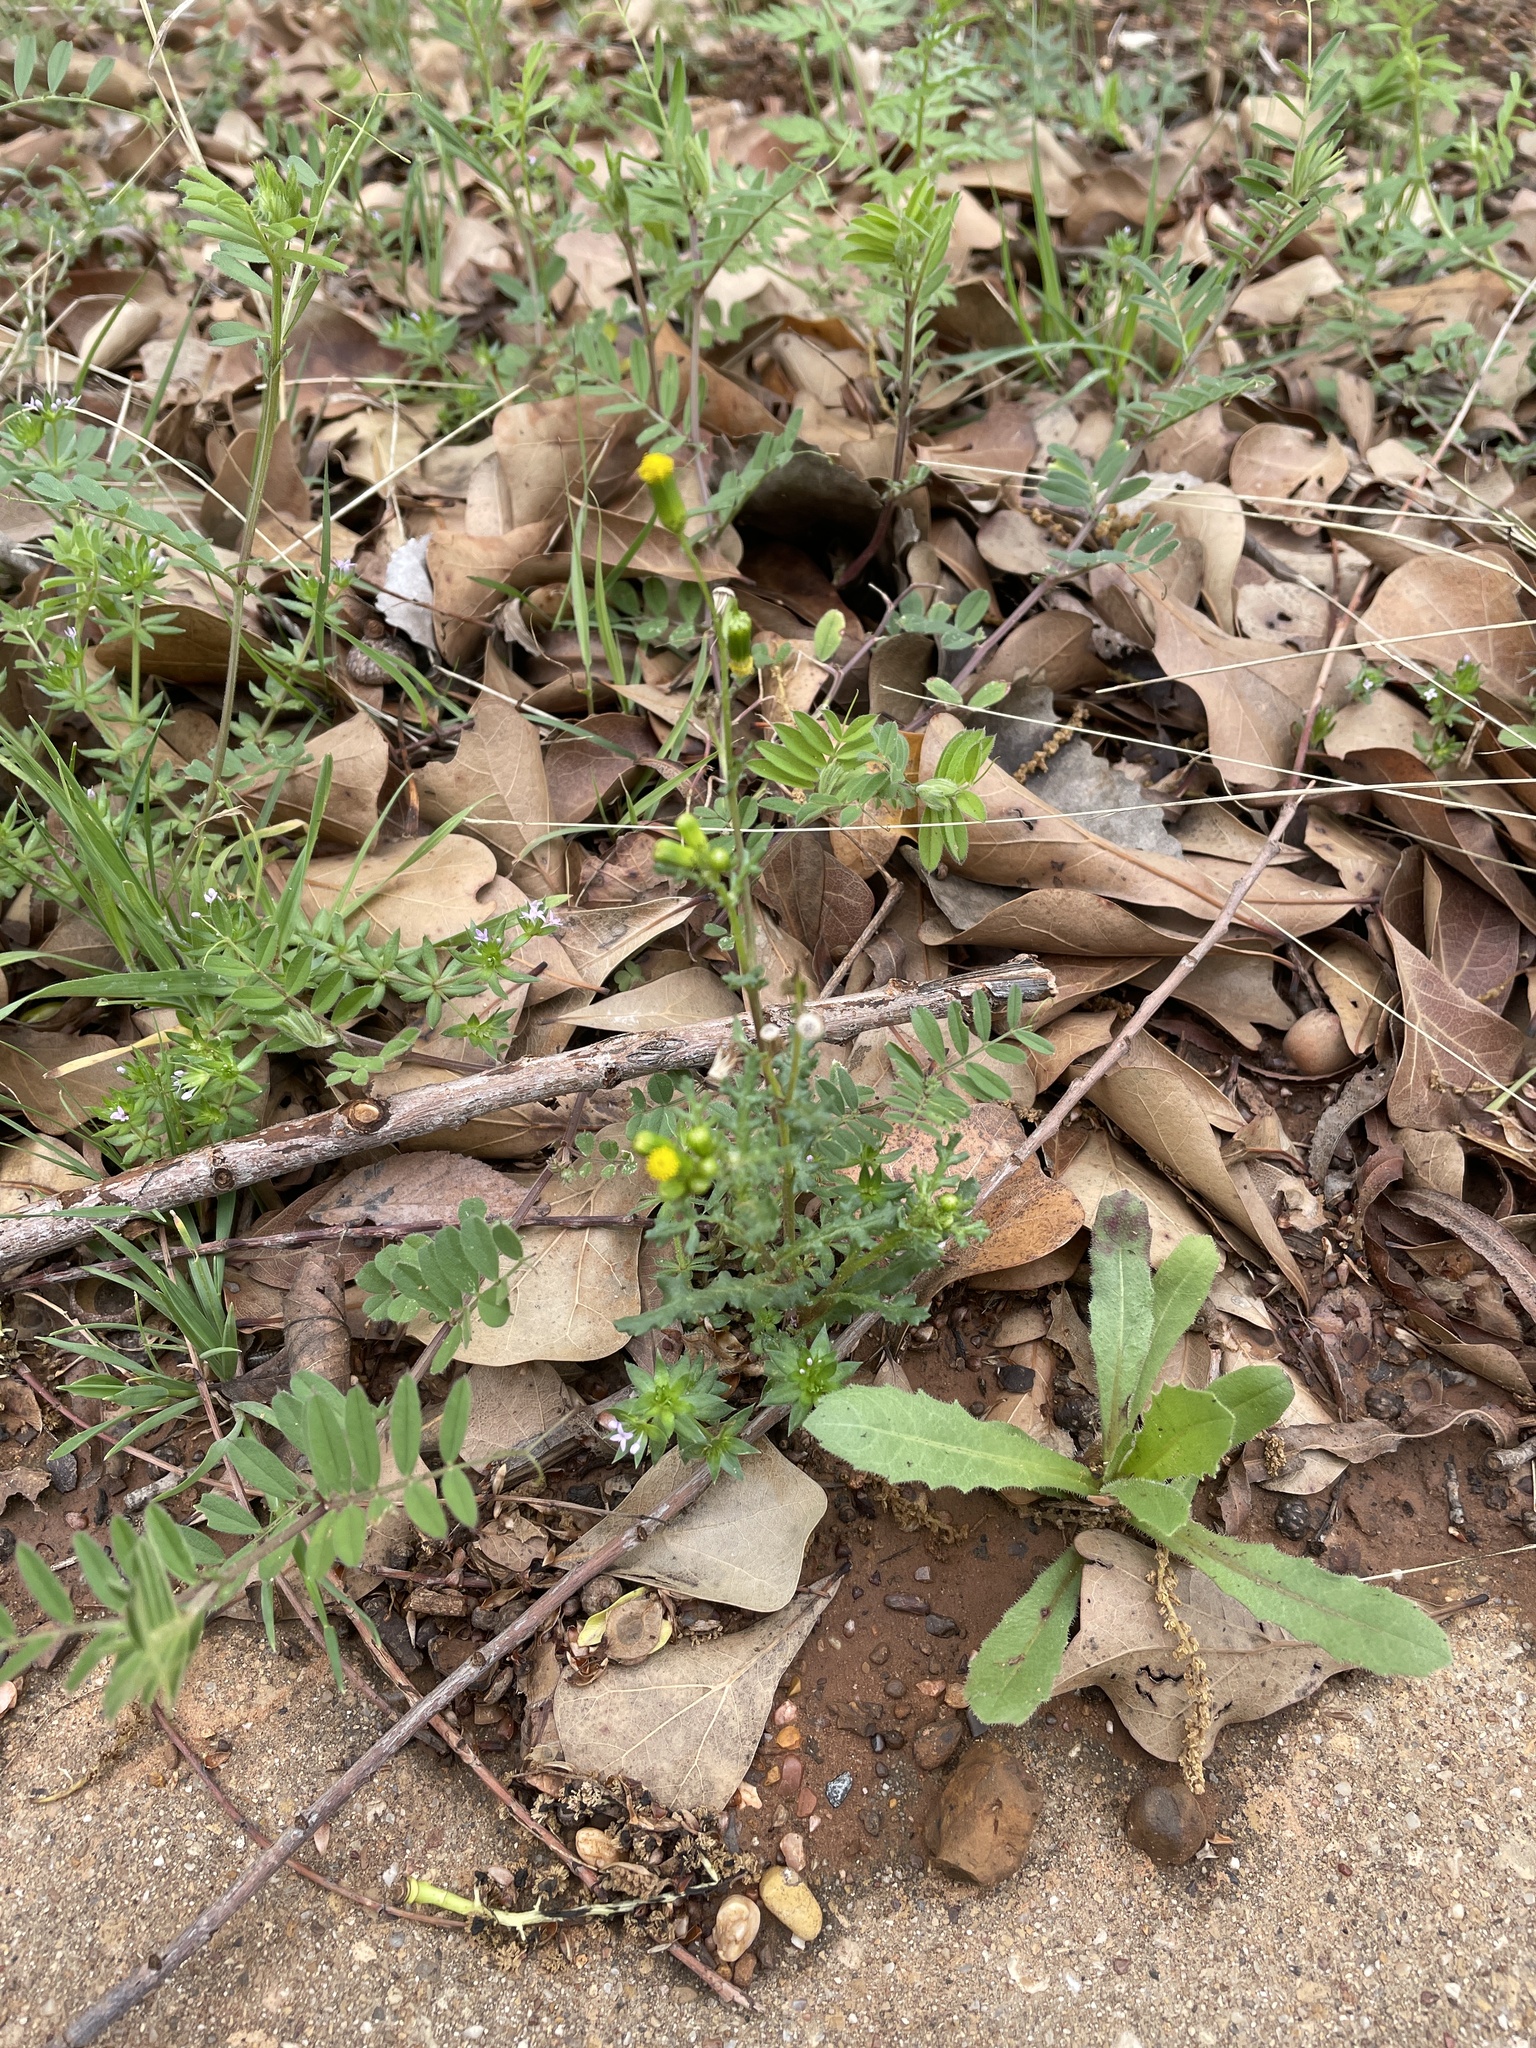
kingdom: Plantae
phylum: Tracheophyta
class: Magnoliopsida
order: Asterales
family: Asteraceae
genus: Senecio
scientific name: Senecio vulgaris
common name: Old-man-in-the-spring
